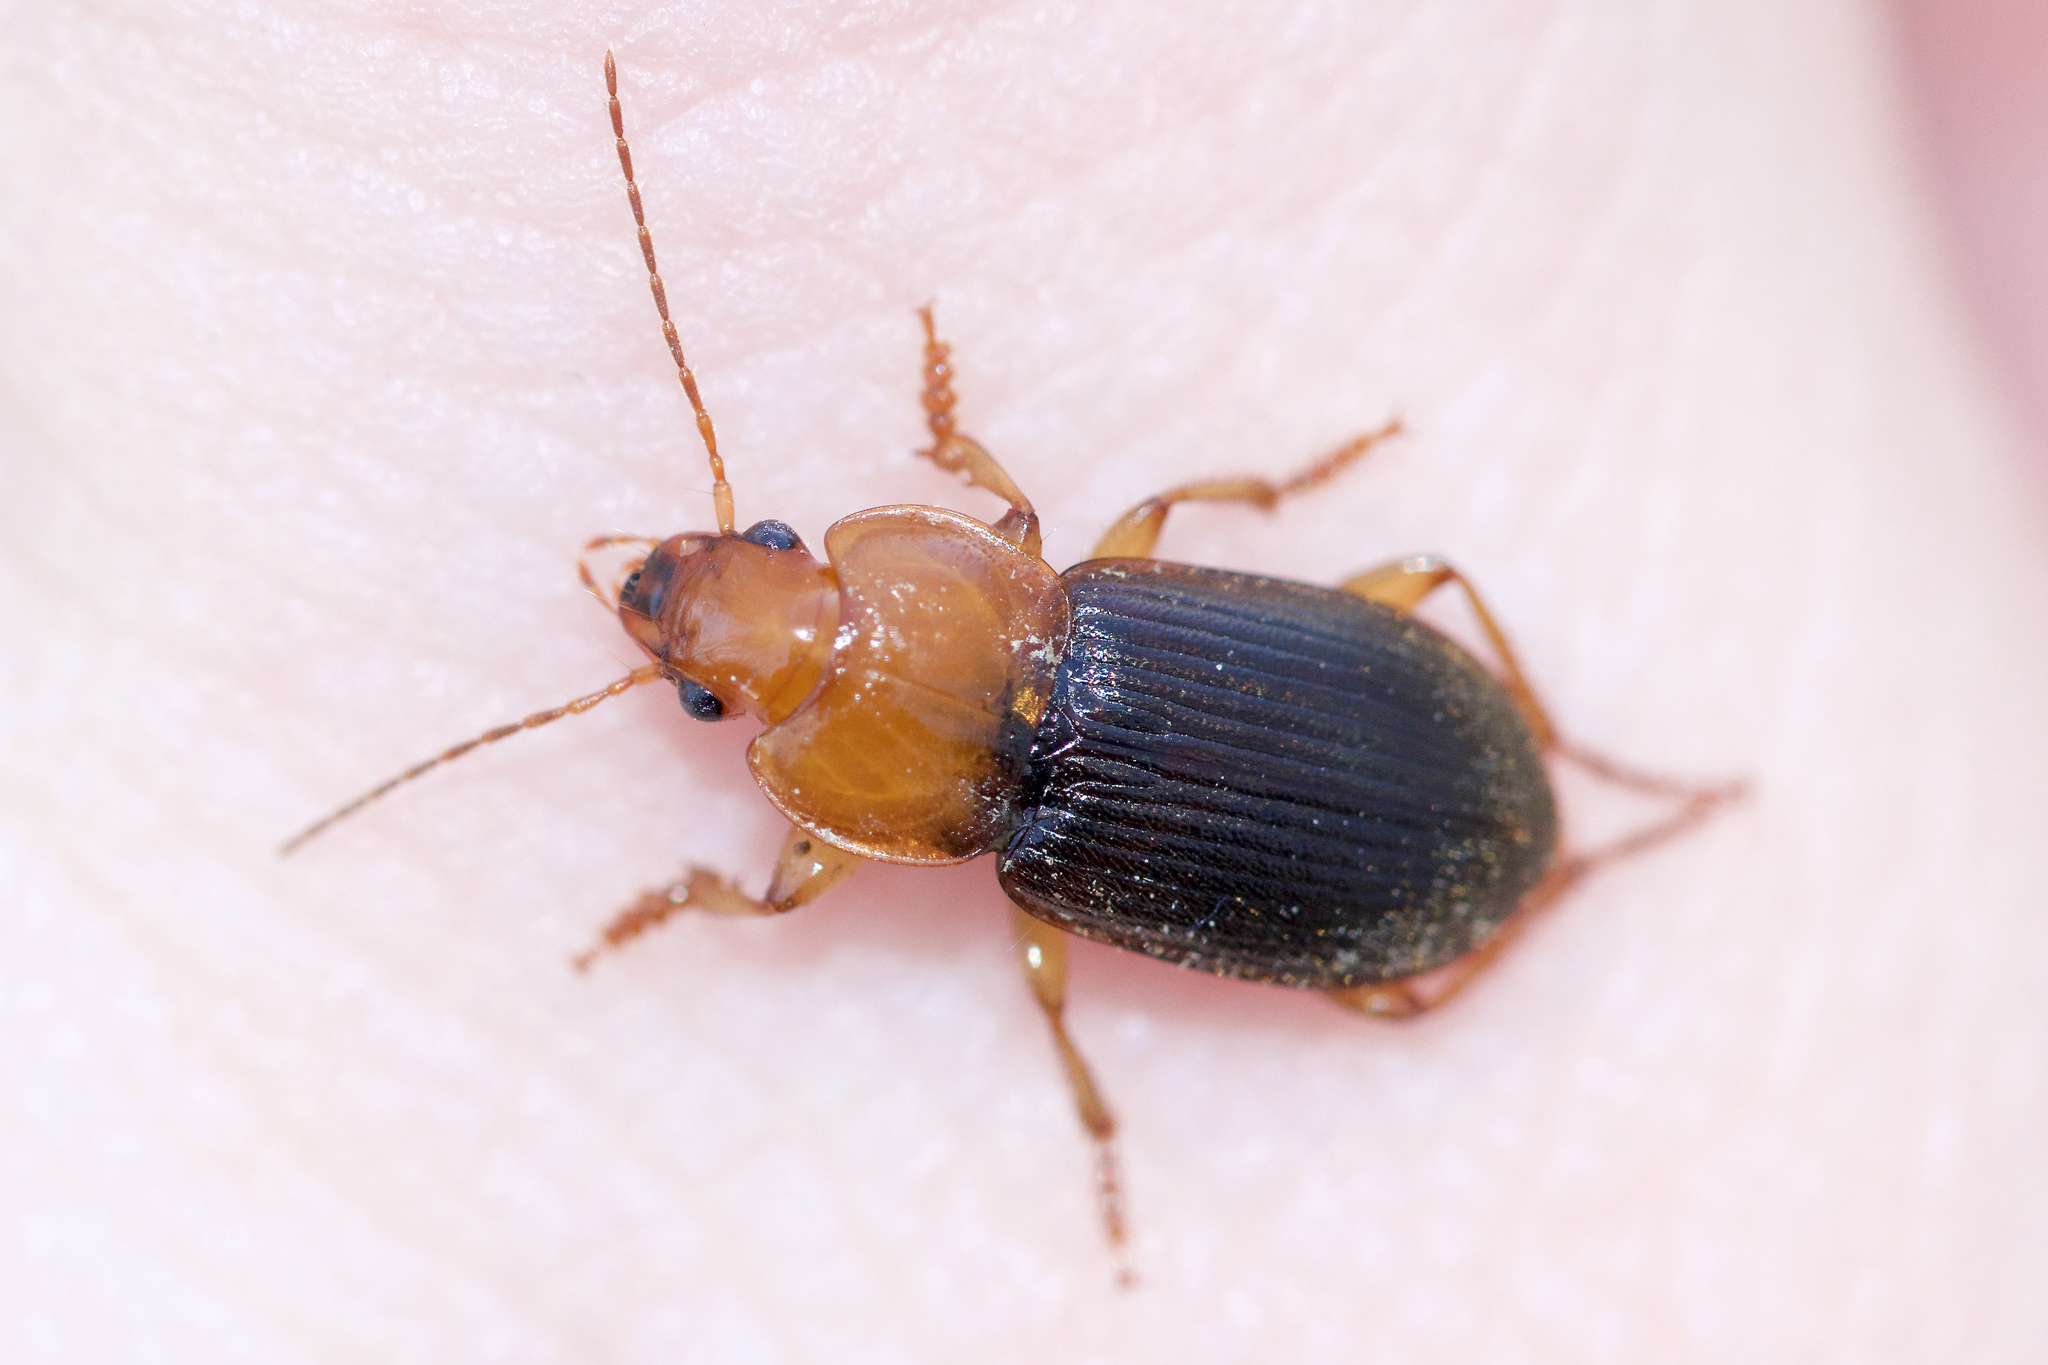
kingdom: Animalia
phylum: Arthropoda
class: Insecta
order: Coleoptera
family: Carabidae
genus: Amphasia
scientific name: Amphasia interstitialis
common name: Red-headed ground beetle
